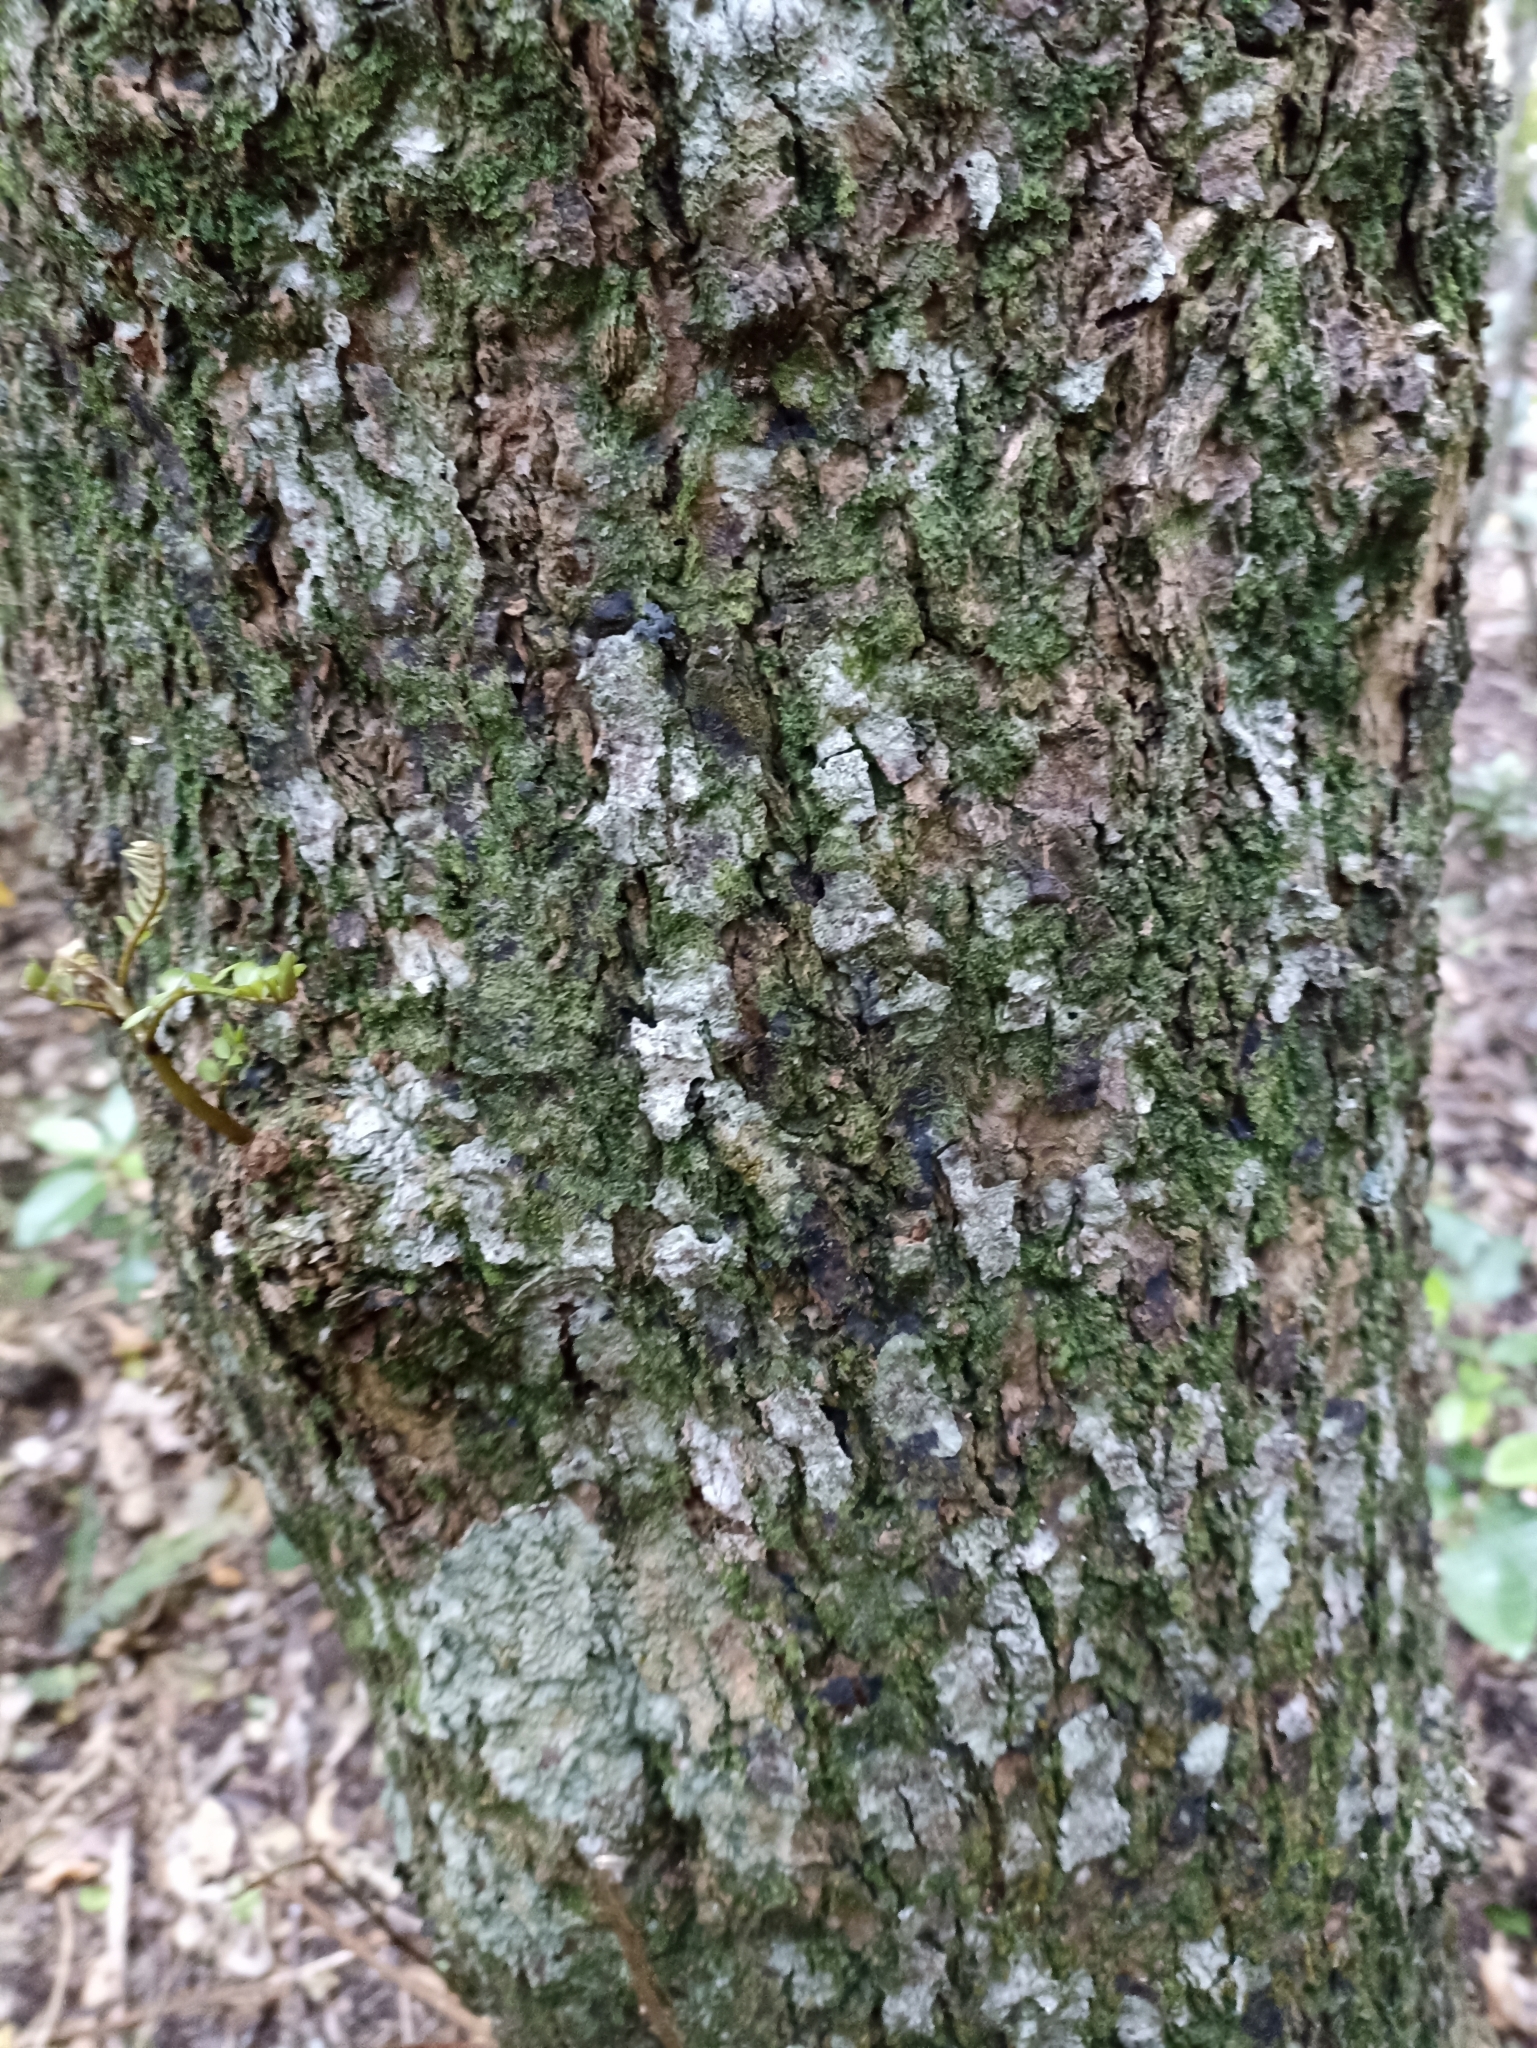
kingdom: Plantae
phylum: Tracheophyta
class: Magnoliopsida
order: Fabales
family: Fabaceae
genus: Sophora
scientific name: Sophora chathamica
